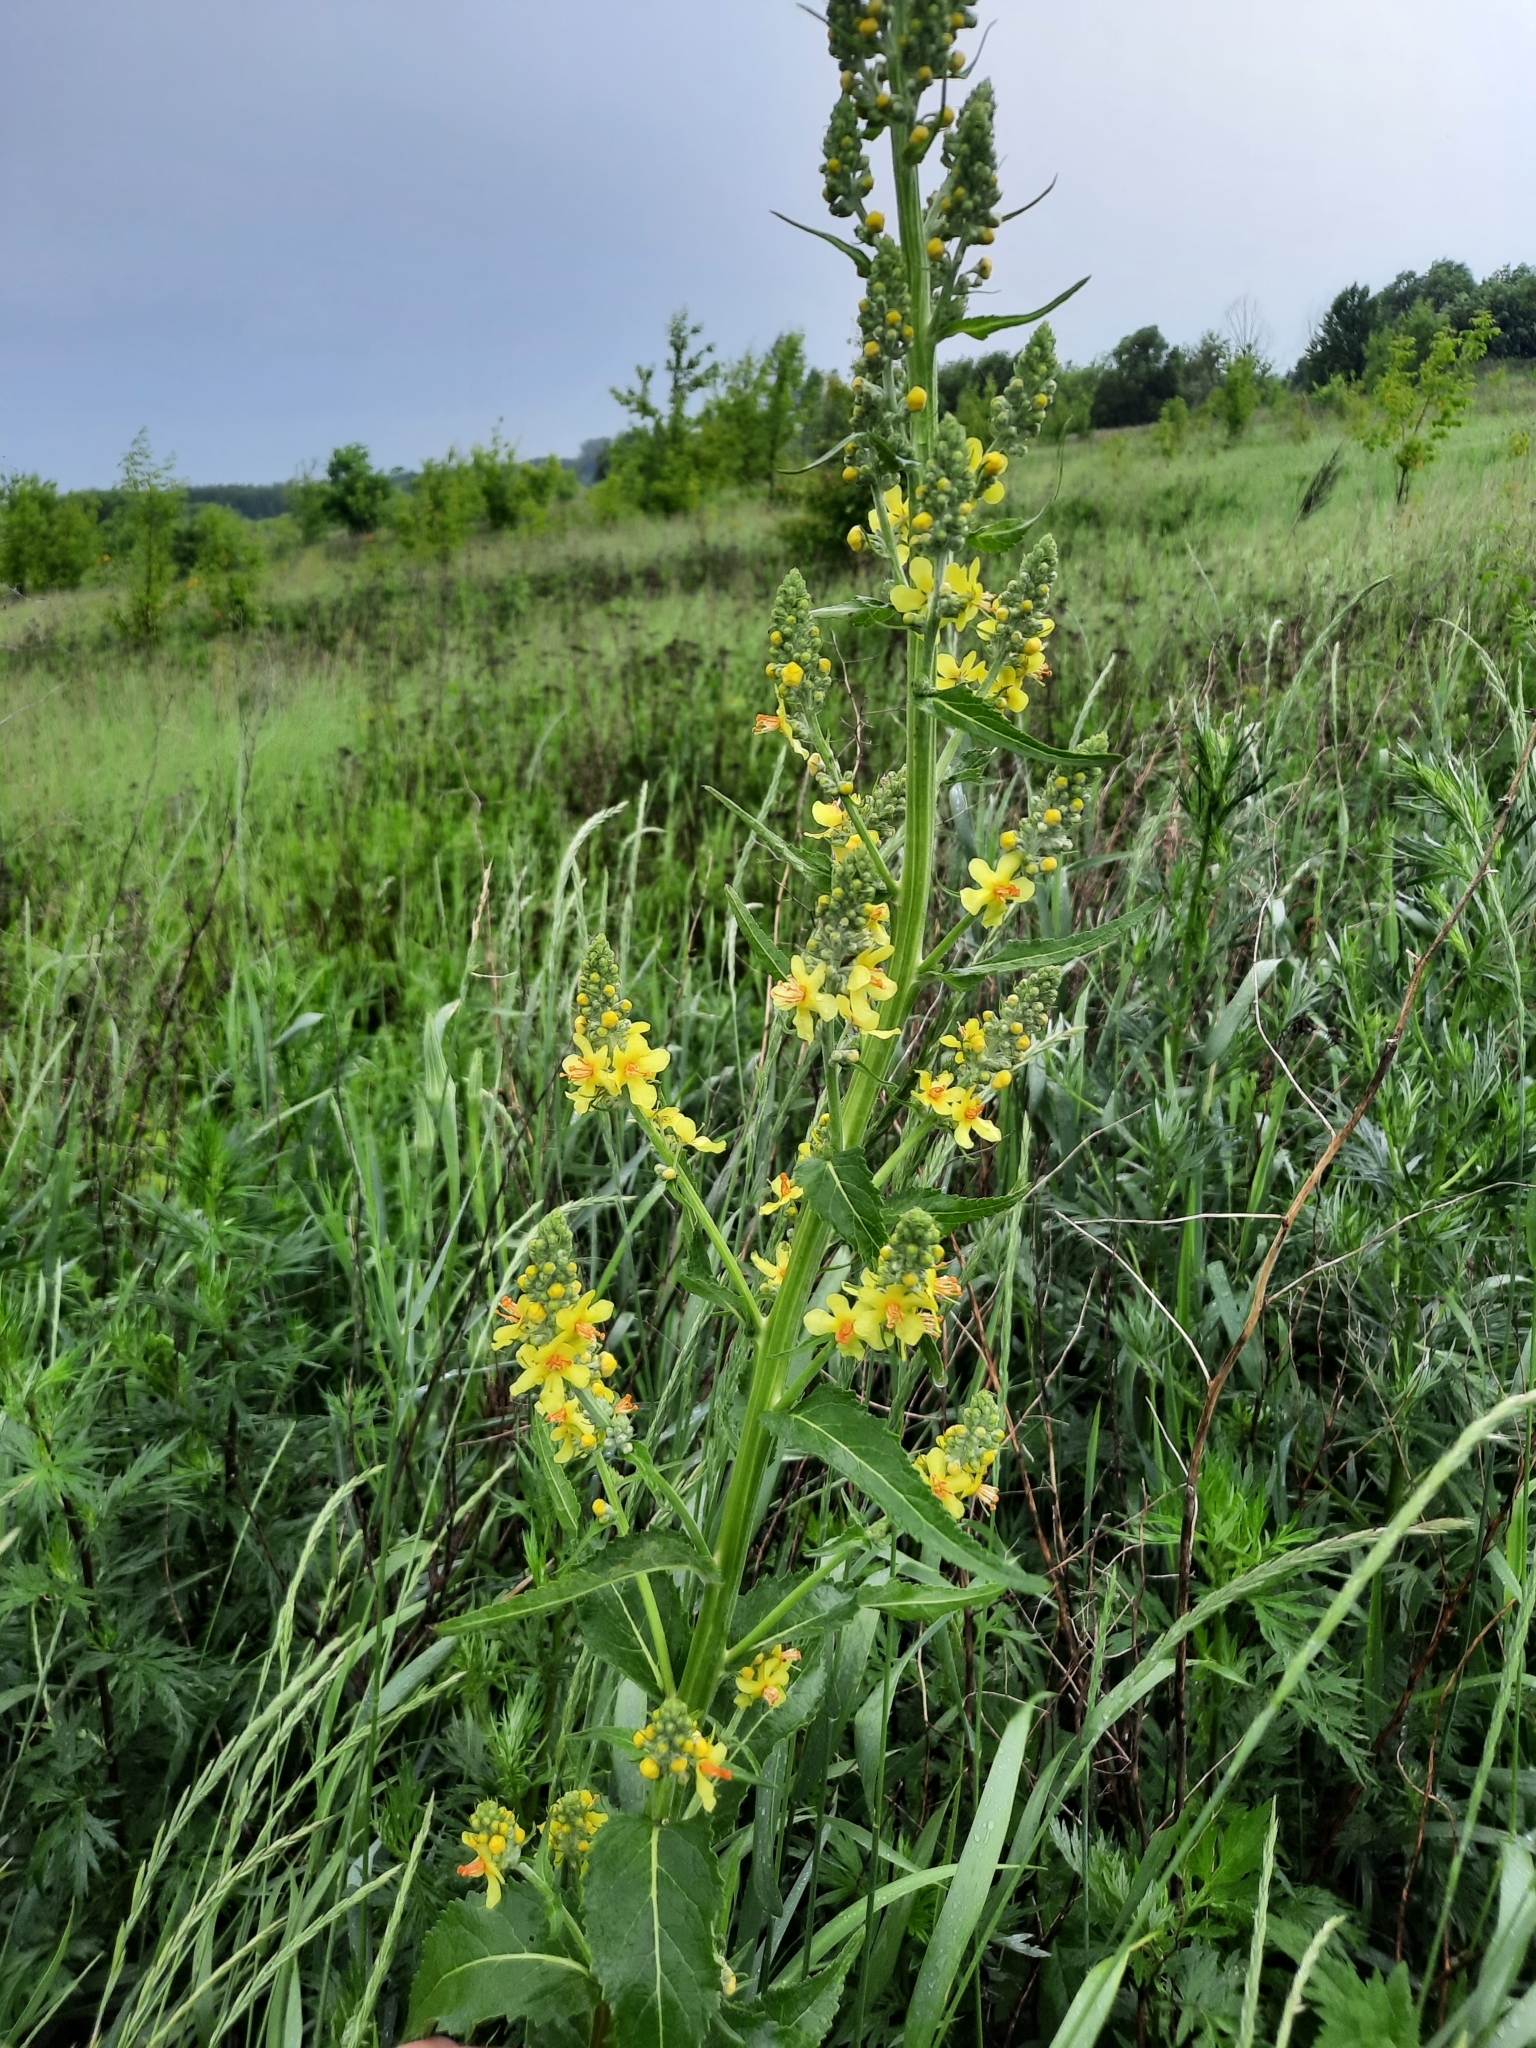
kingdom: Plantae
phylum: Tracheophyta
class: Magnoliopsida
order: Lamiales
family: Scrophulariaceae
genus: Verbascum
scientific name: Verbascum lychnitis
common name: White mullein
